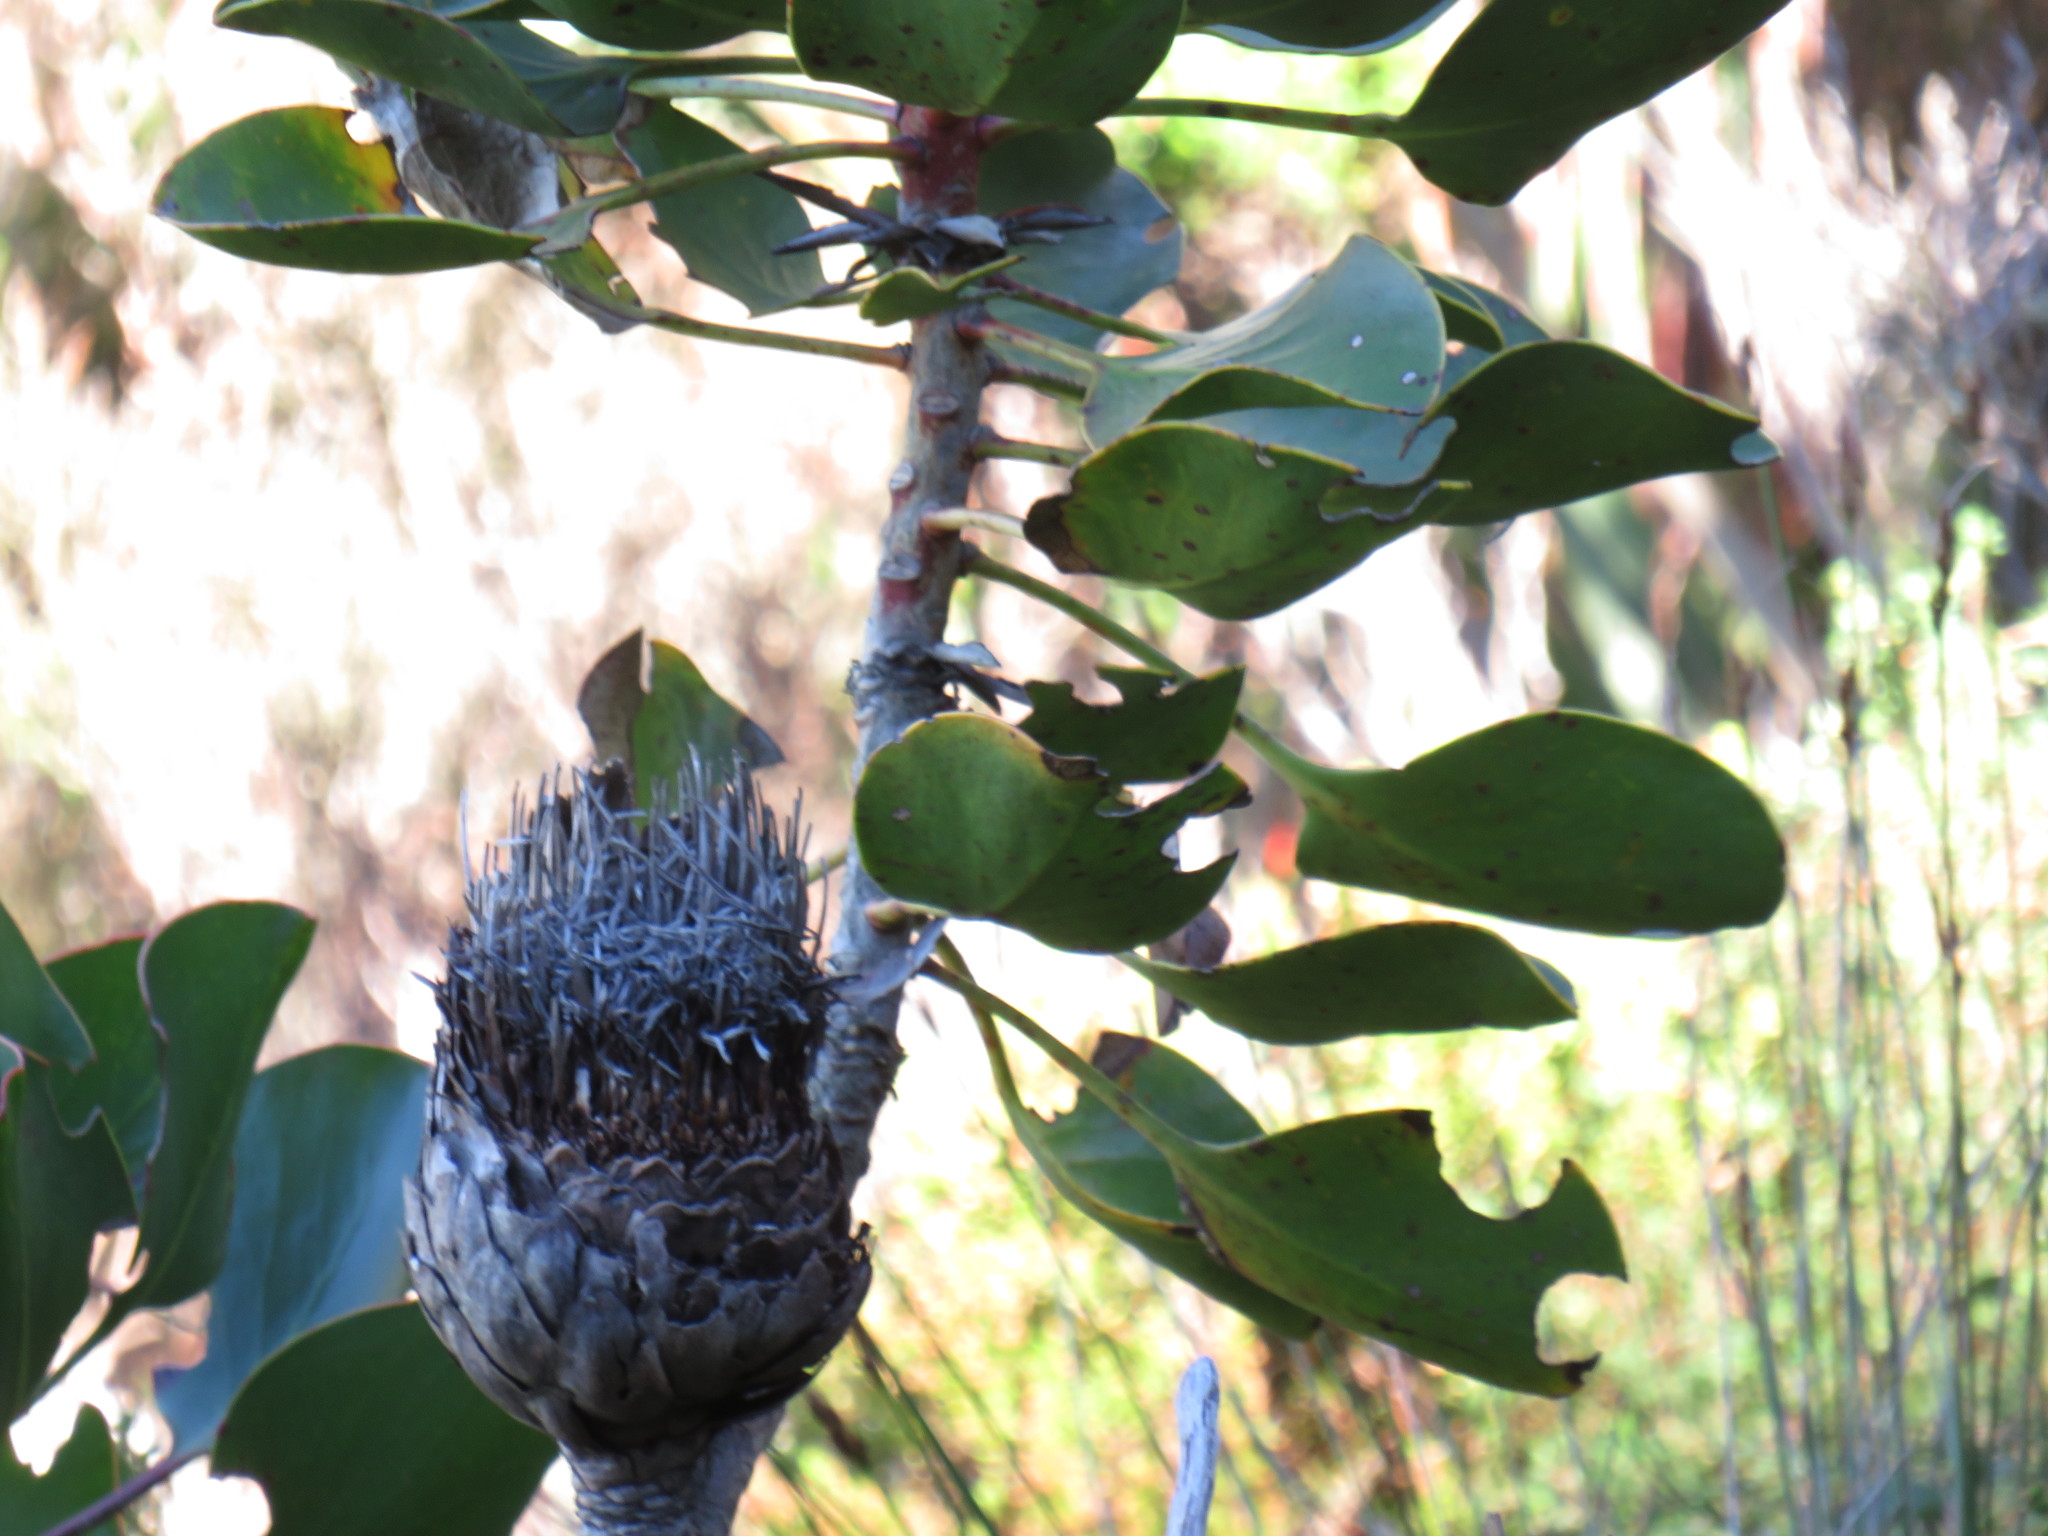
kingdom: Plantae
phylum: Tracheophyta
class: Magnoliopsida
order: Proteales
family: Proteaceae
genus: Protea
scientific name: Protea cynaroides
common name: King protea
